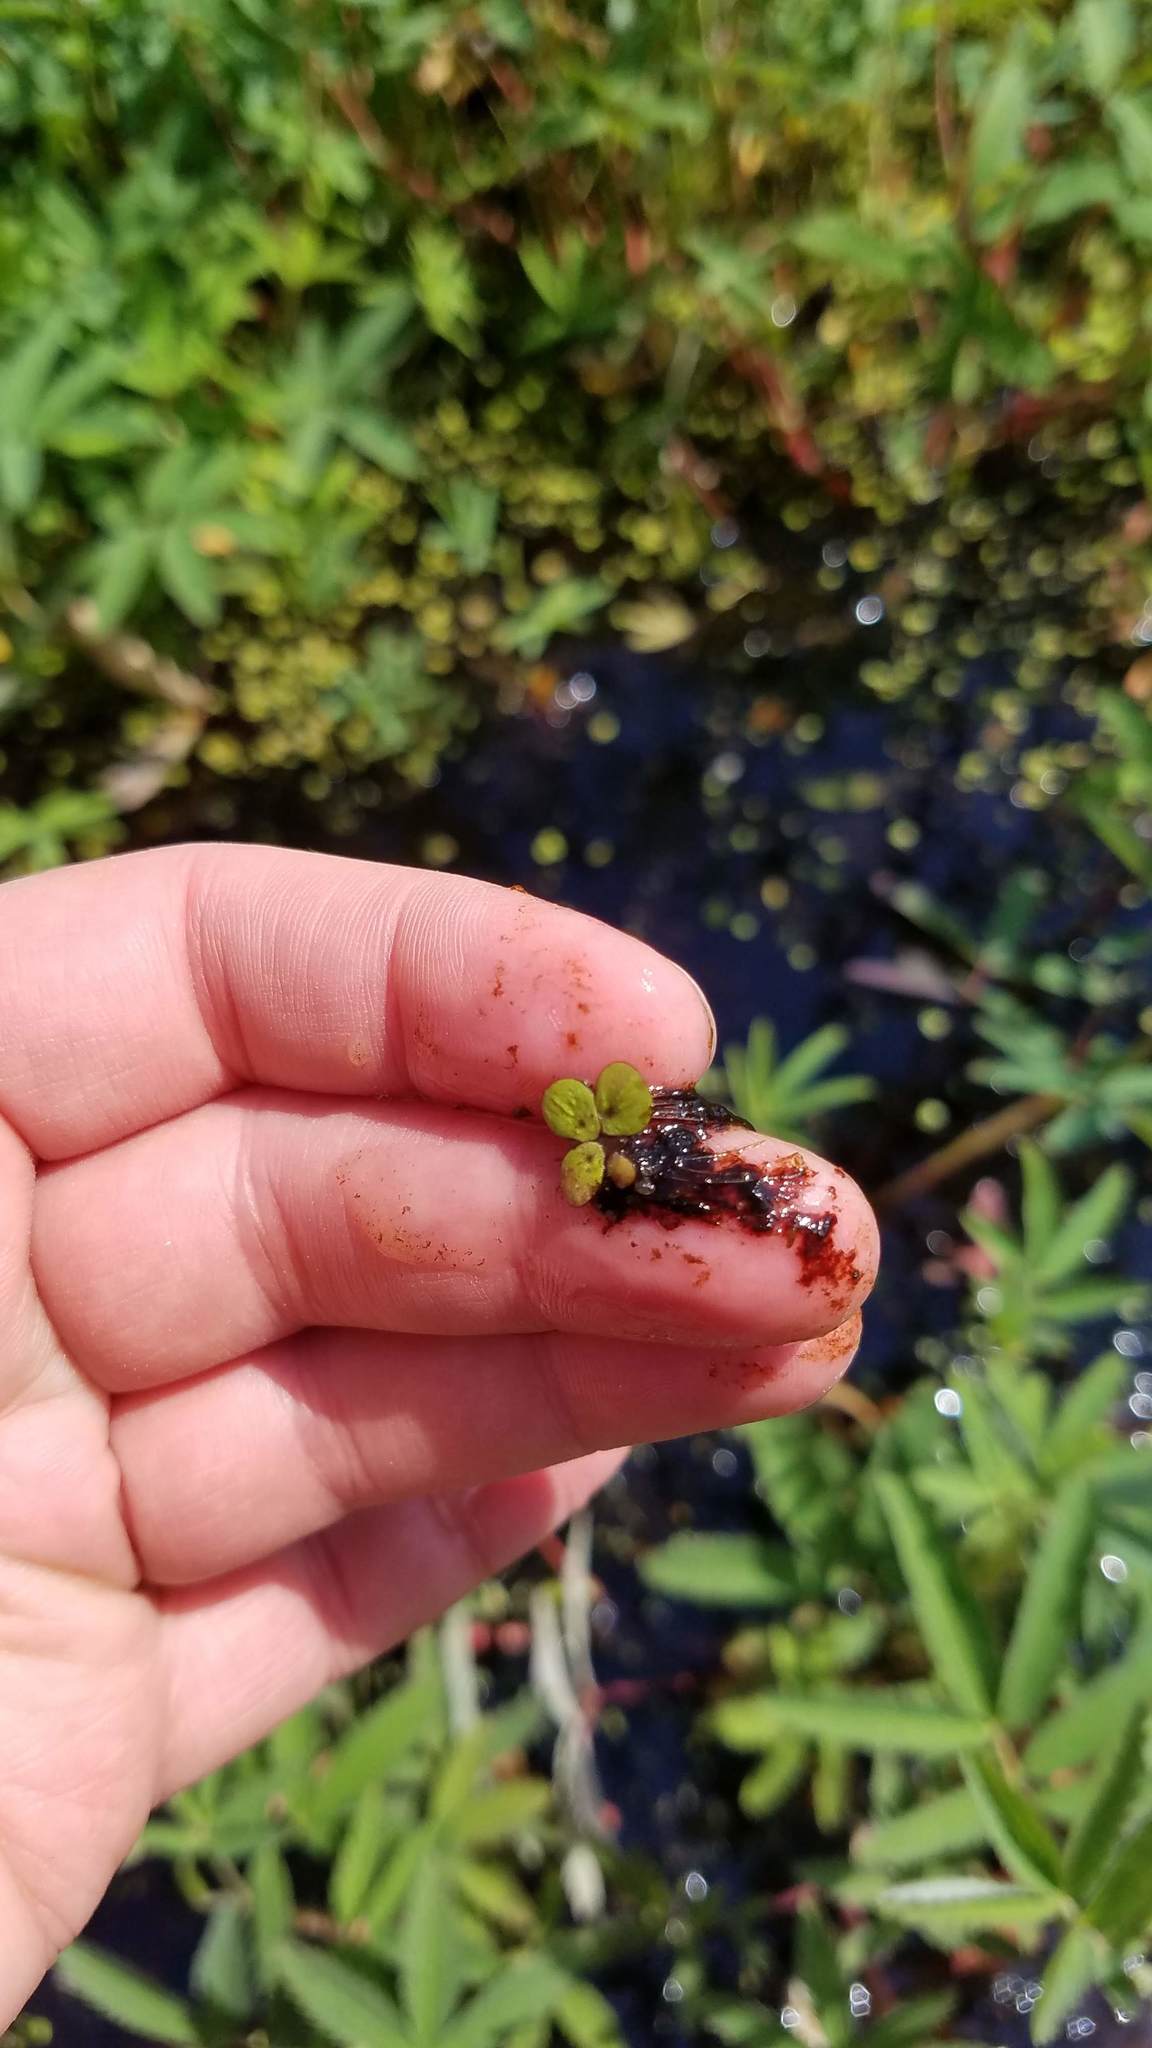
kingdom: Plantae
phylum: Tracheophyta
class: Liliopsida
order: Alismatales
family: Araceae
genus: Spirodela
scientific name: Spirodela polyrhiza
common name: Great duckweed
